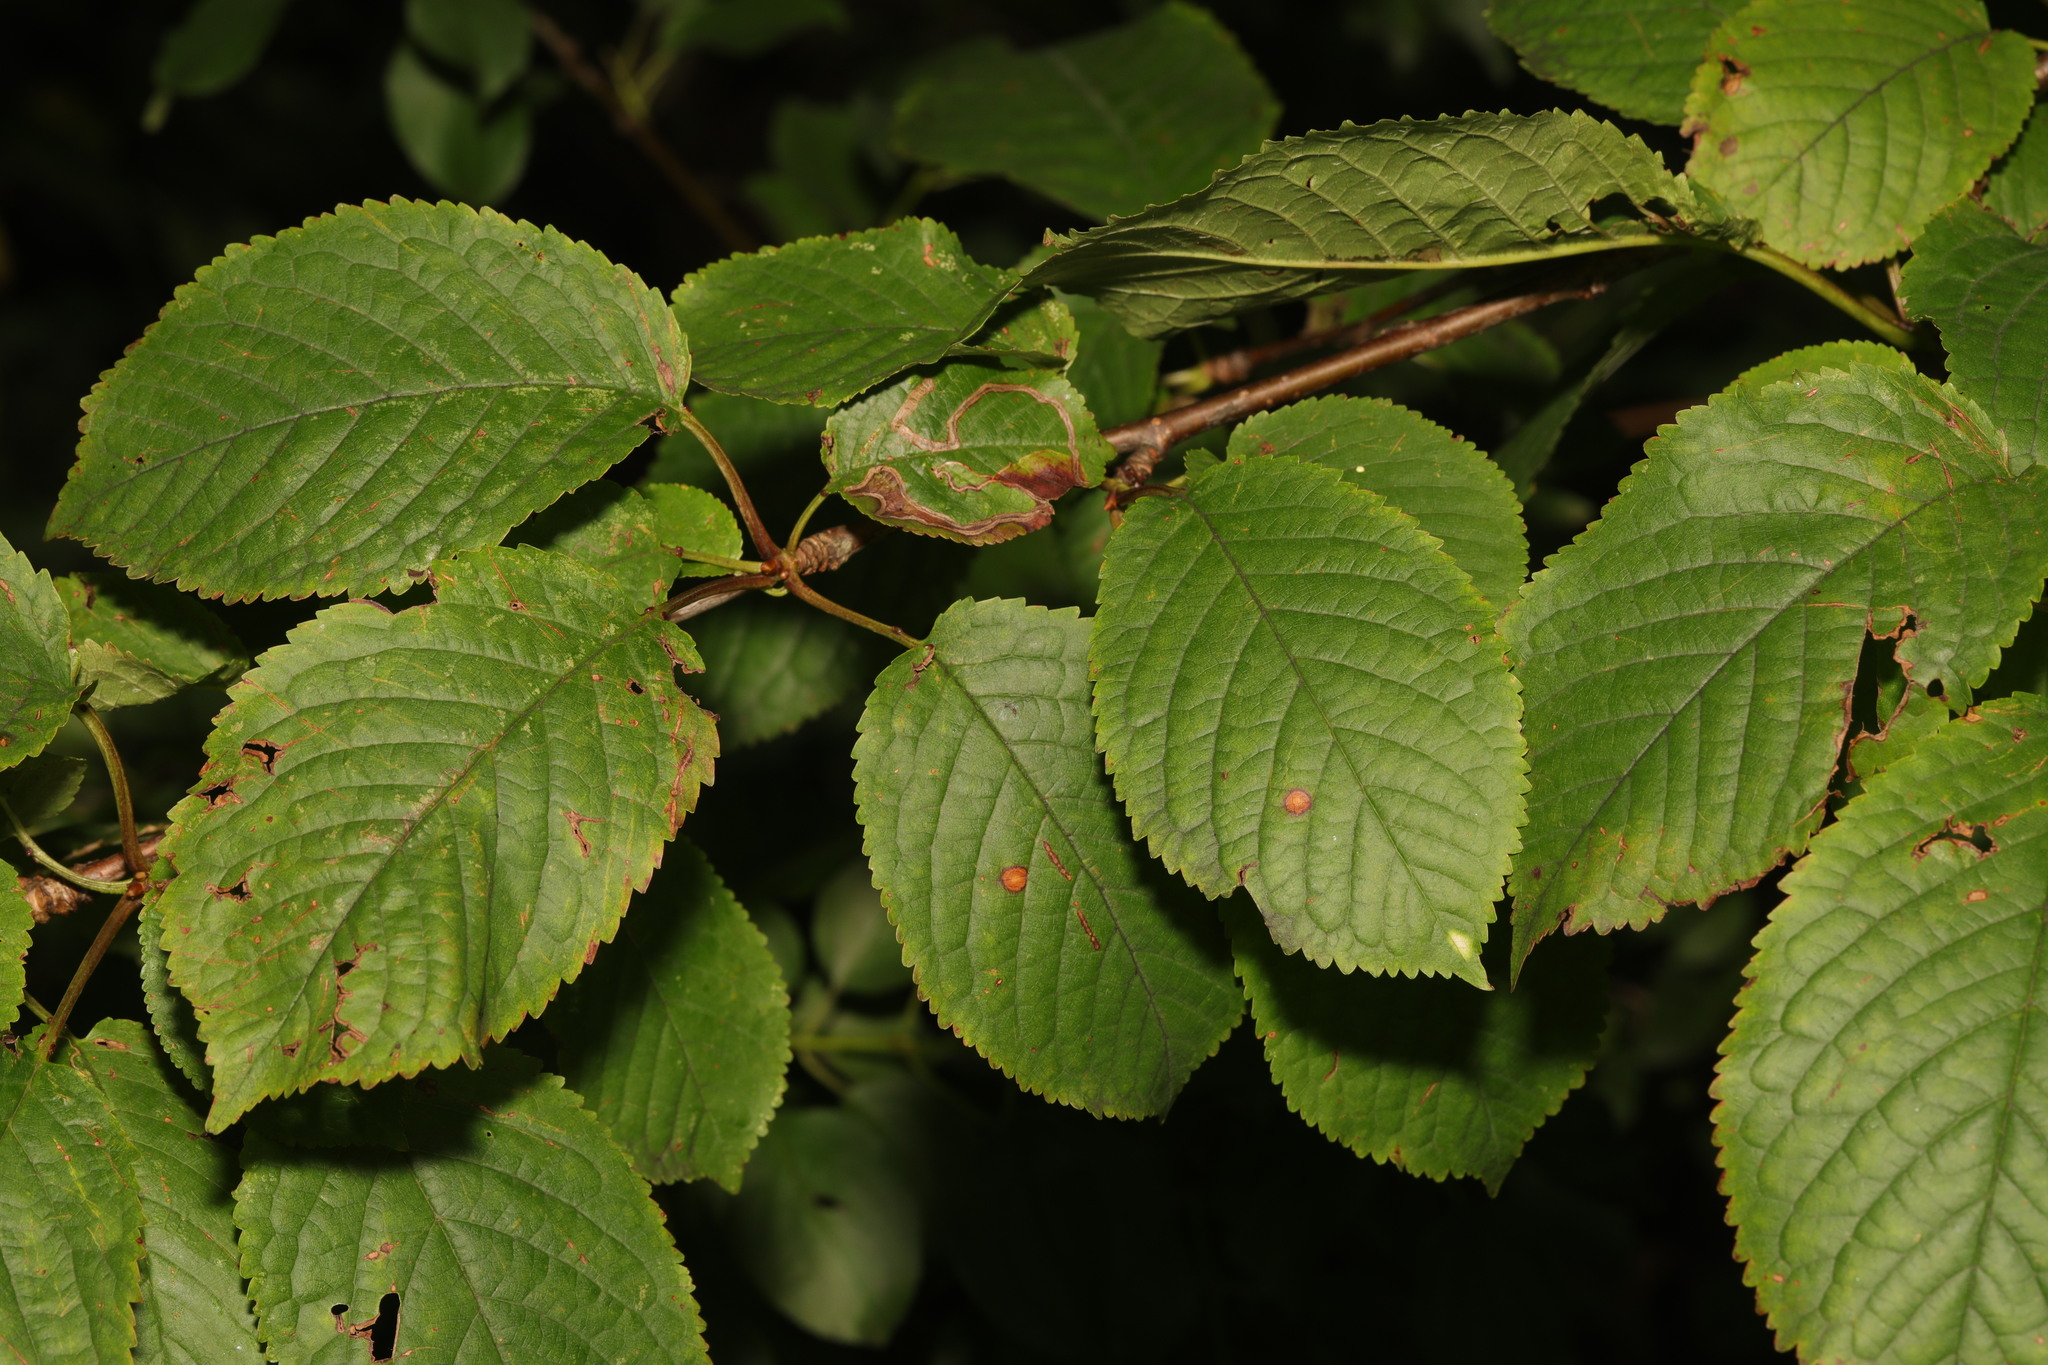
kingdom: Plantae
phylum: Tracheophyta
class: Magnoliopsida
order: Rosales
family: Rosaceae
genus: Prunus
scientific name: Prunus avium
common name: Sweet cherry
